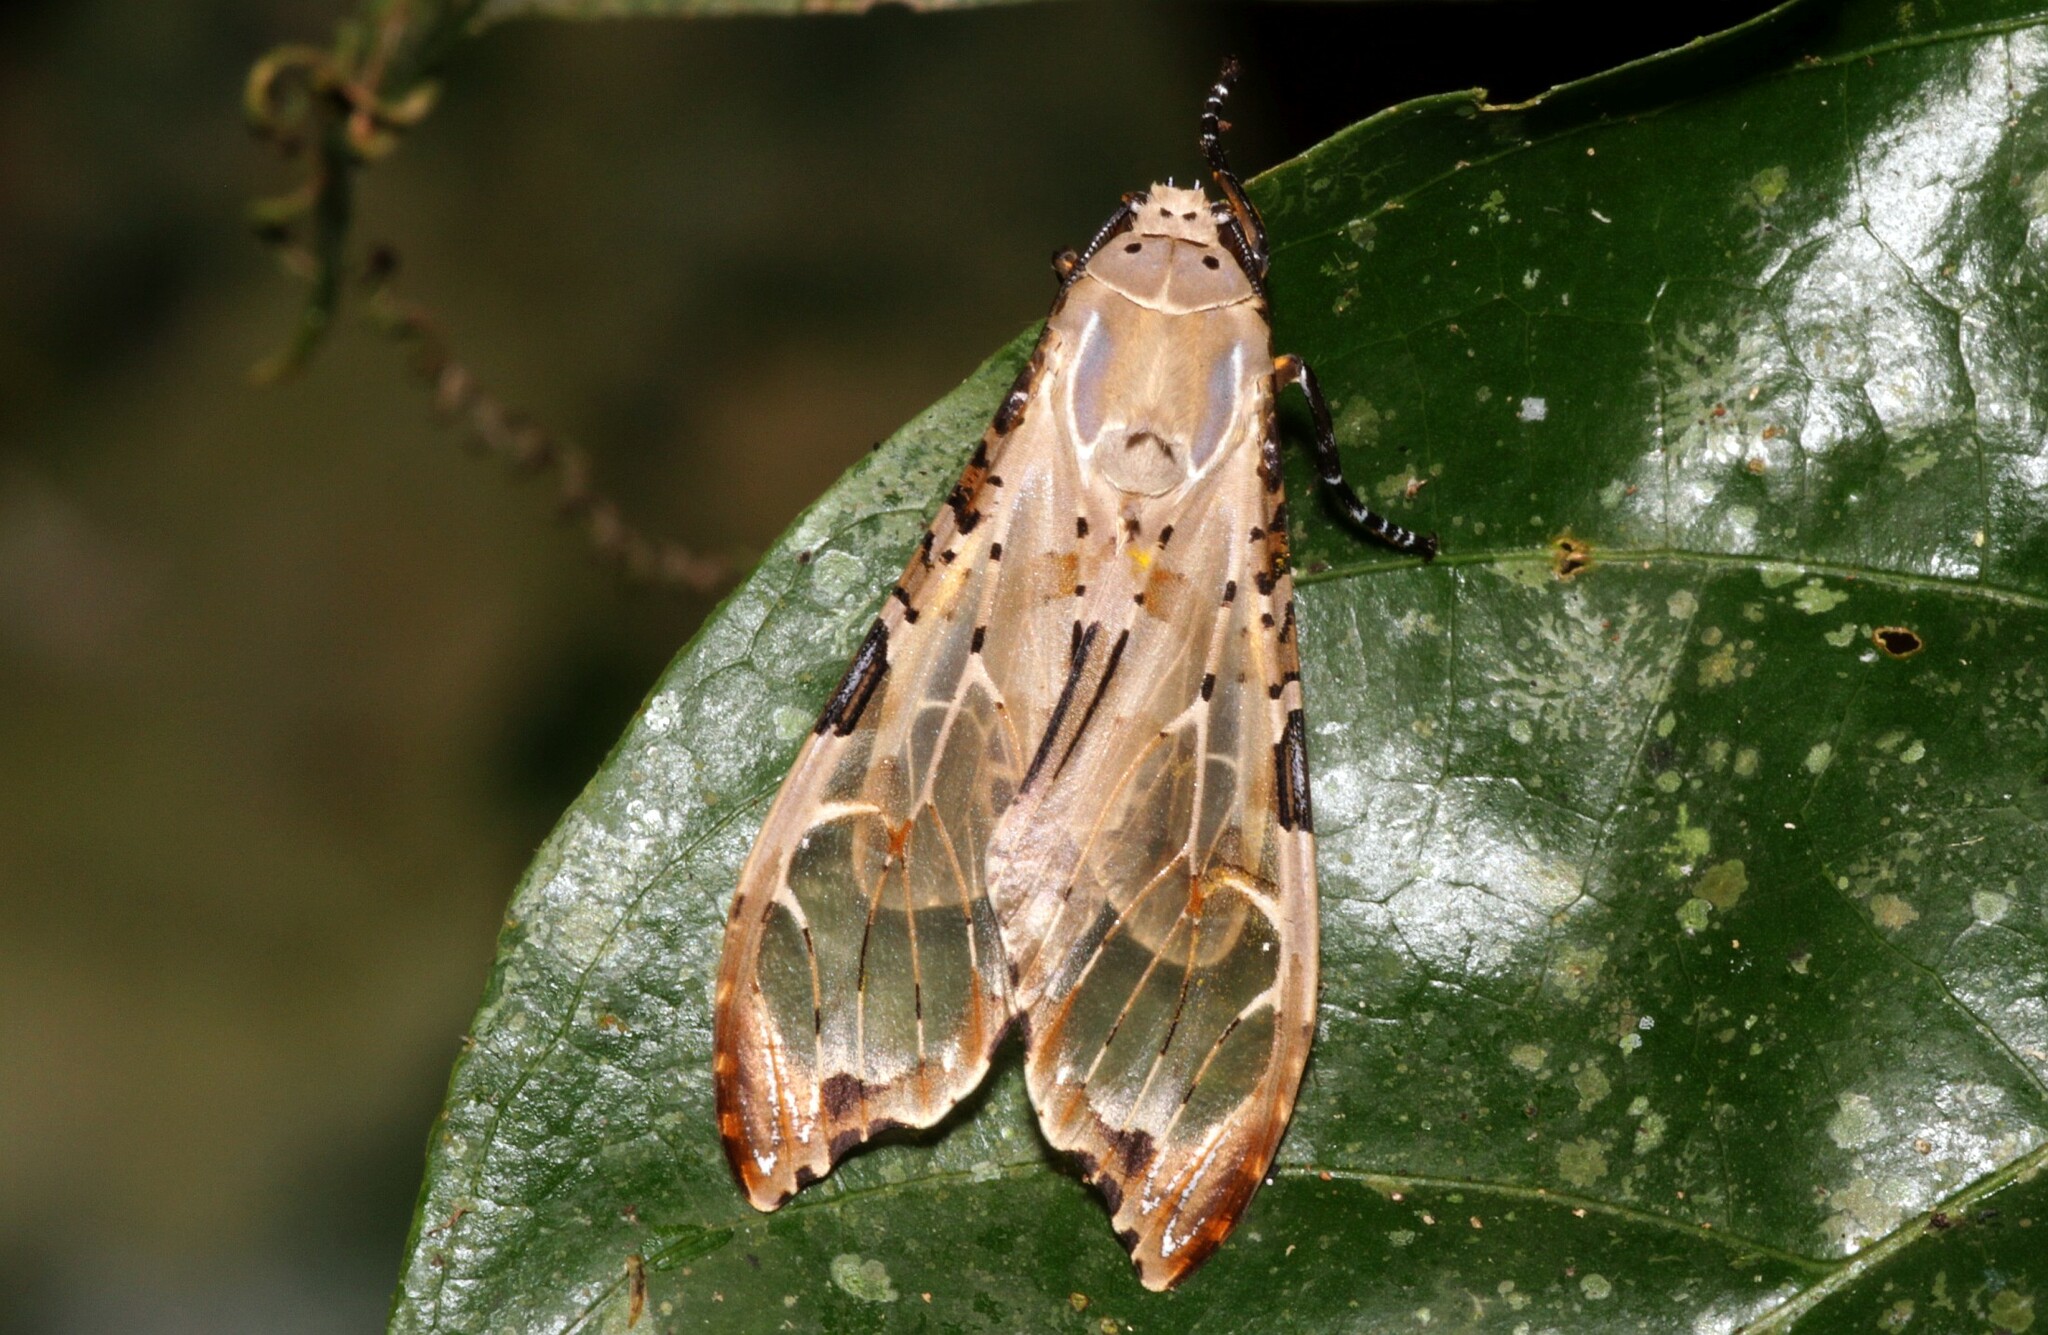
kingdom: Animalia
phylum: Arthropoda
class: Insecta
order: Lepidoptera
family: Erebidae
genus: Psychophasma
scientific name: Psychophasma erosa
